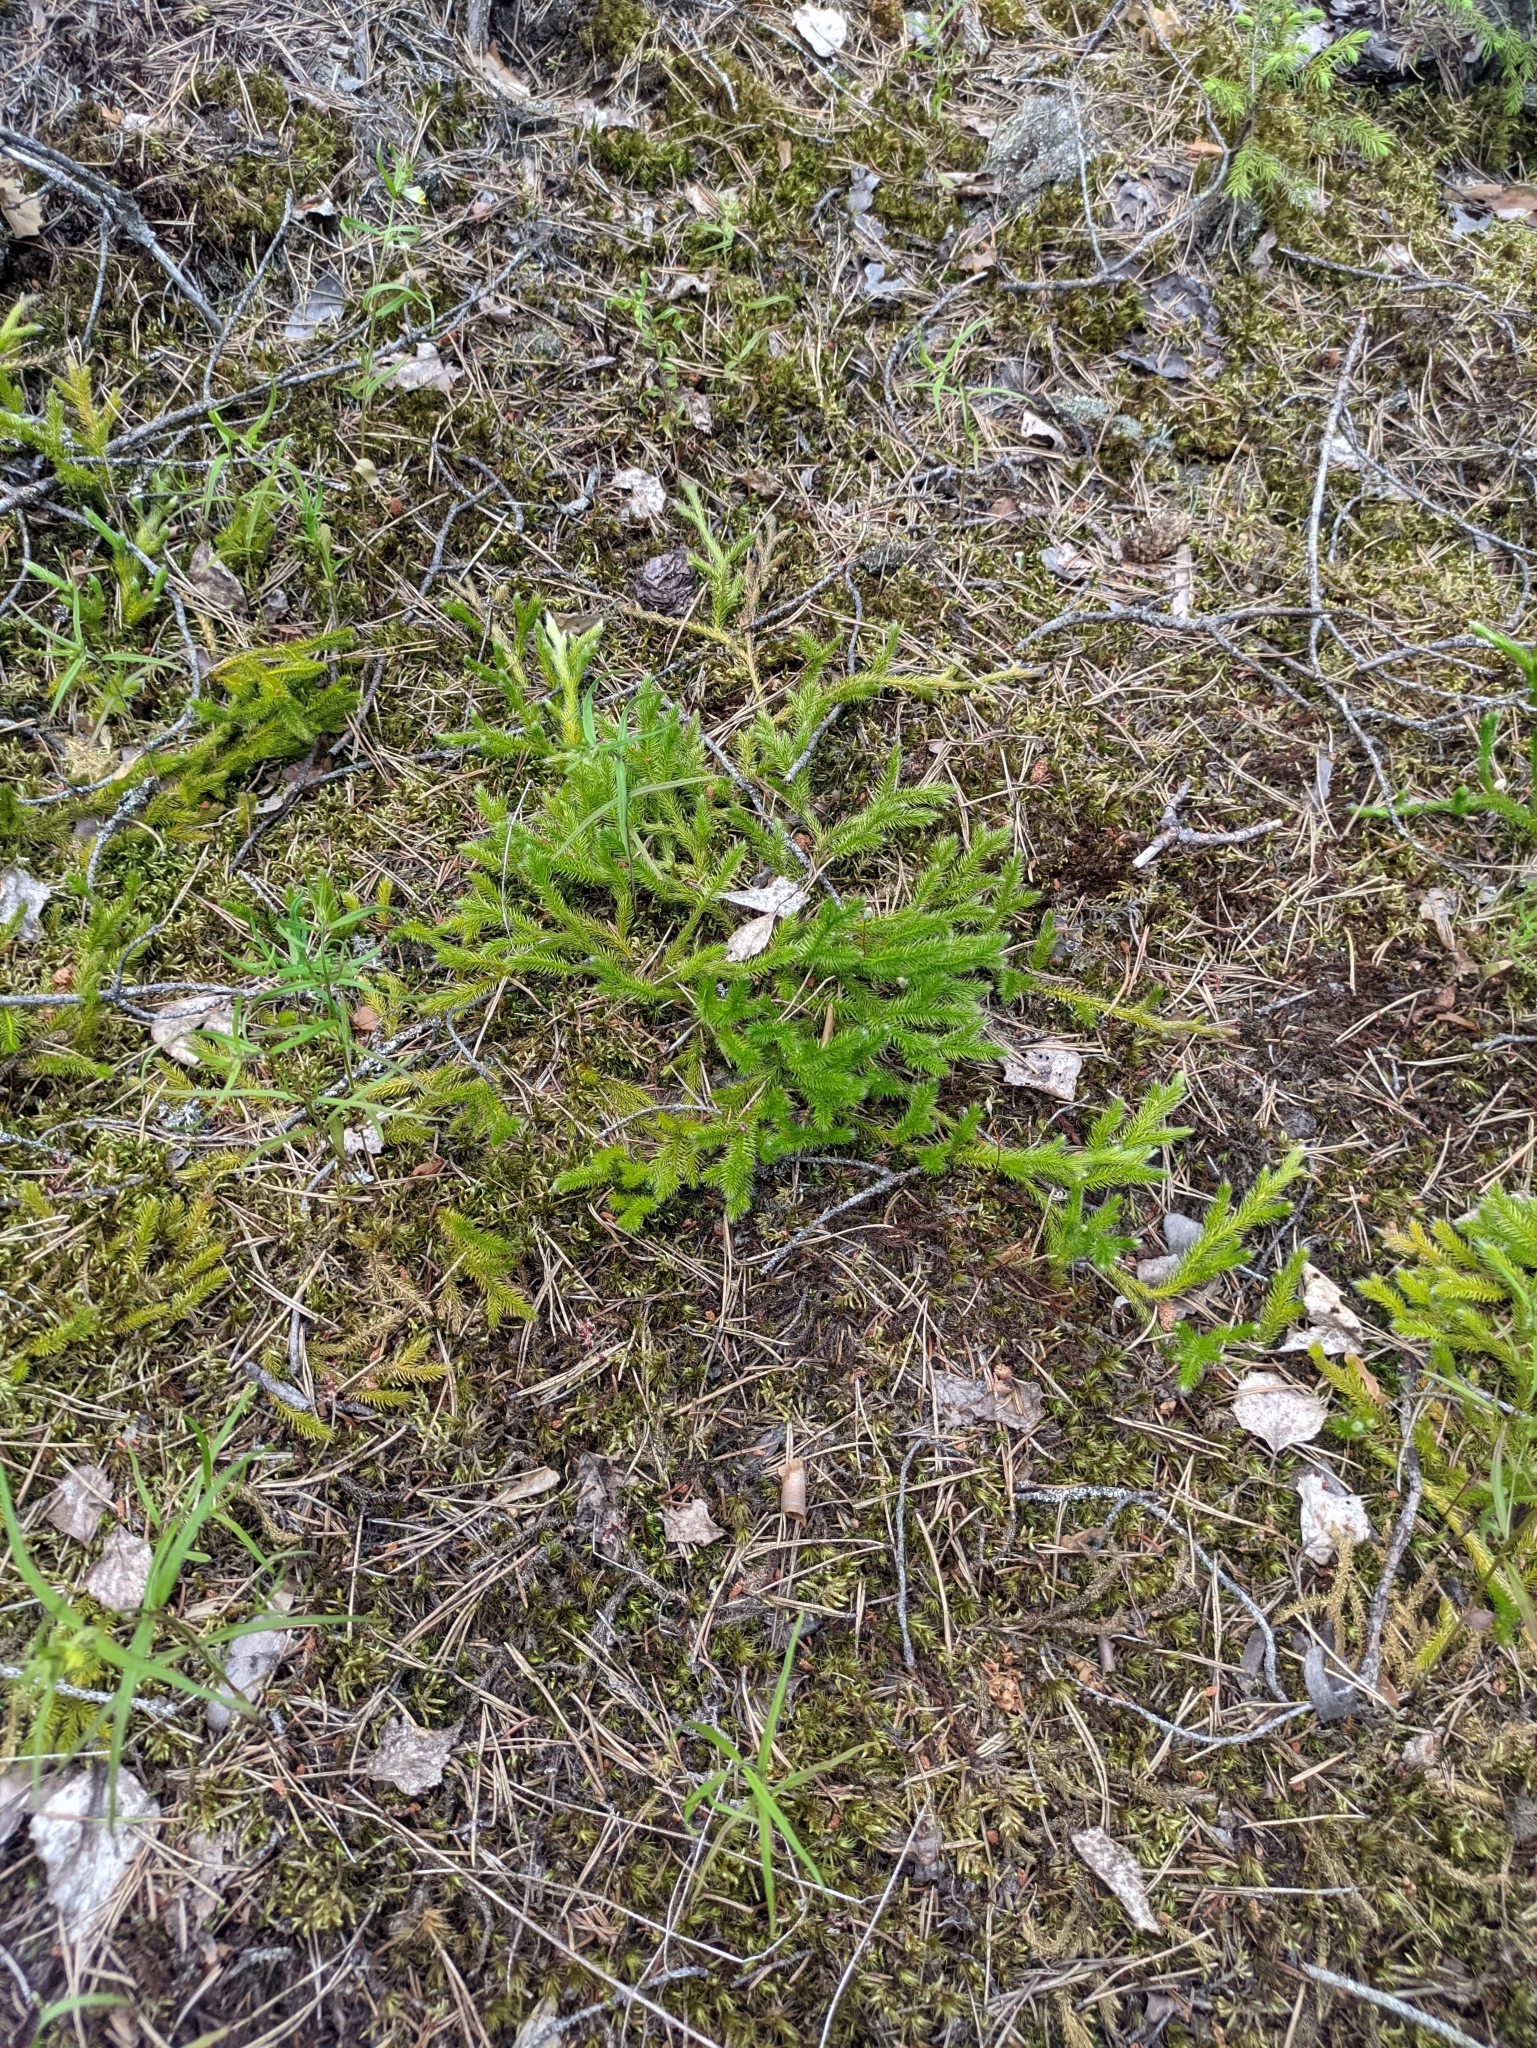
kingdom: Plantae
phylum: Tracheophyta
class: Lycopodiopsida
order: Lycopodiales
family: Lycopodiaceae
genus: Lycopodium
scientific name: Lycopodium clavatum
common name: Stag's-horn clubmoss
